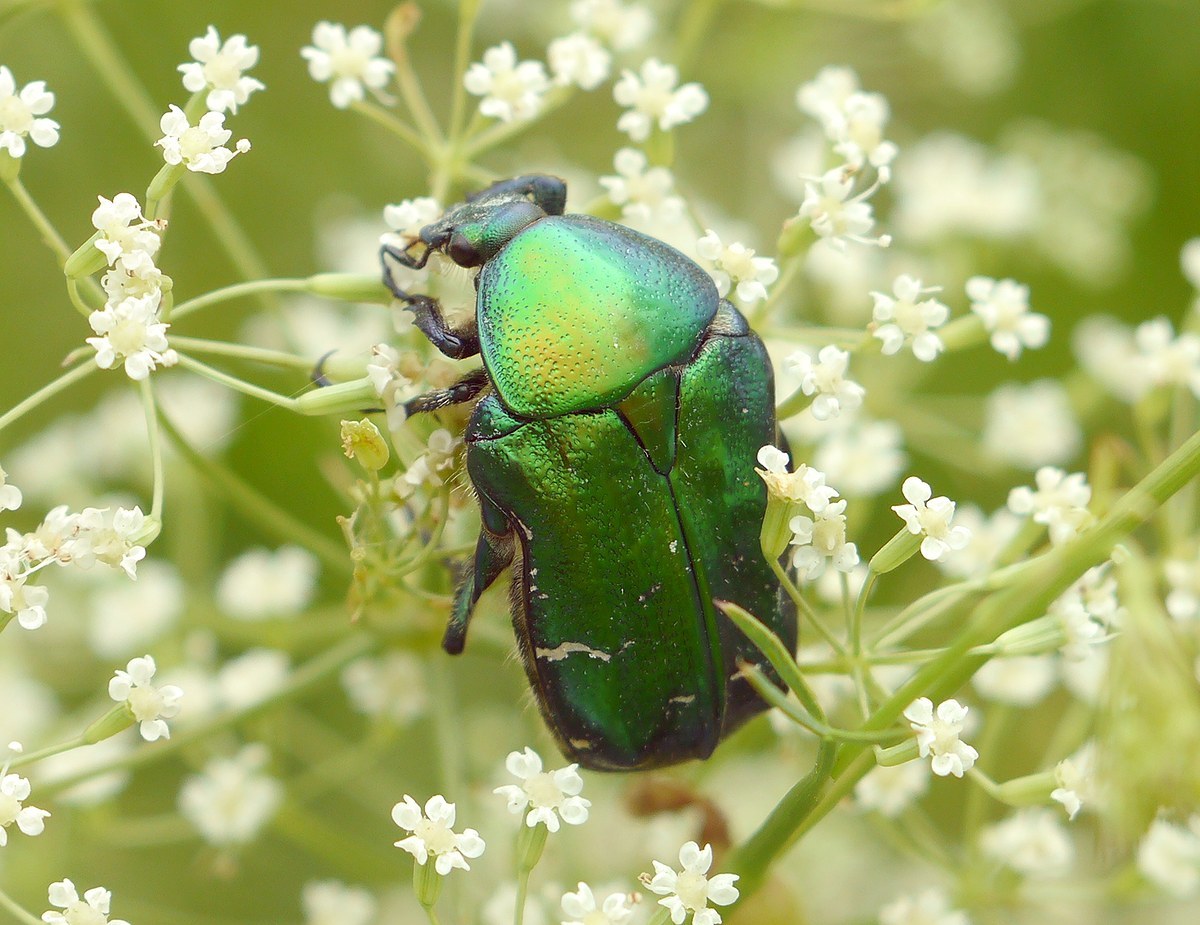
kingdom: Animalia
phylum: Arthropoda
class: Insecta
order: Coleoptera
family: Scarabaeidae
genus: Cetonia
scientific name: Cetonia aurata
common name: Rose chafer
